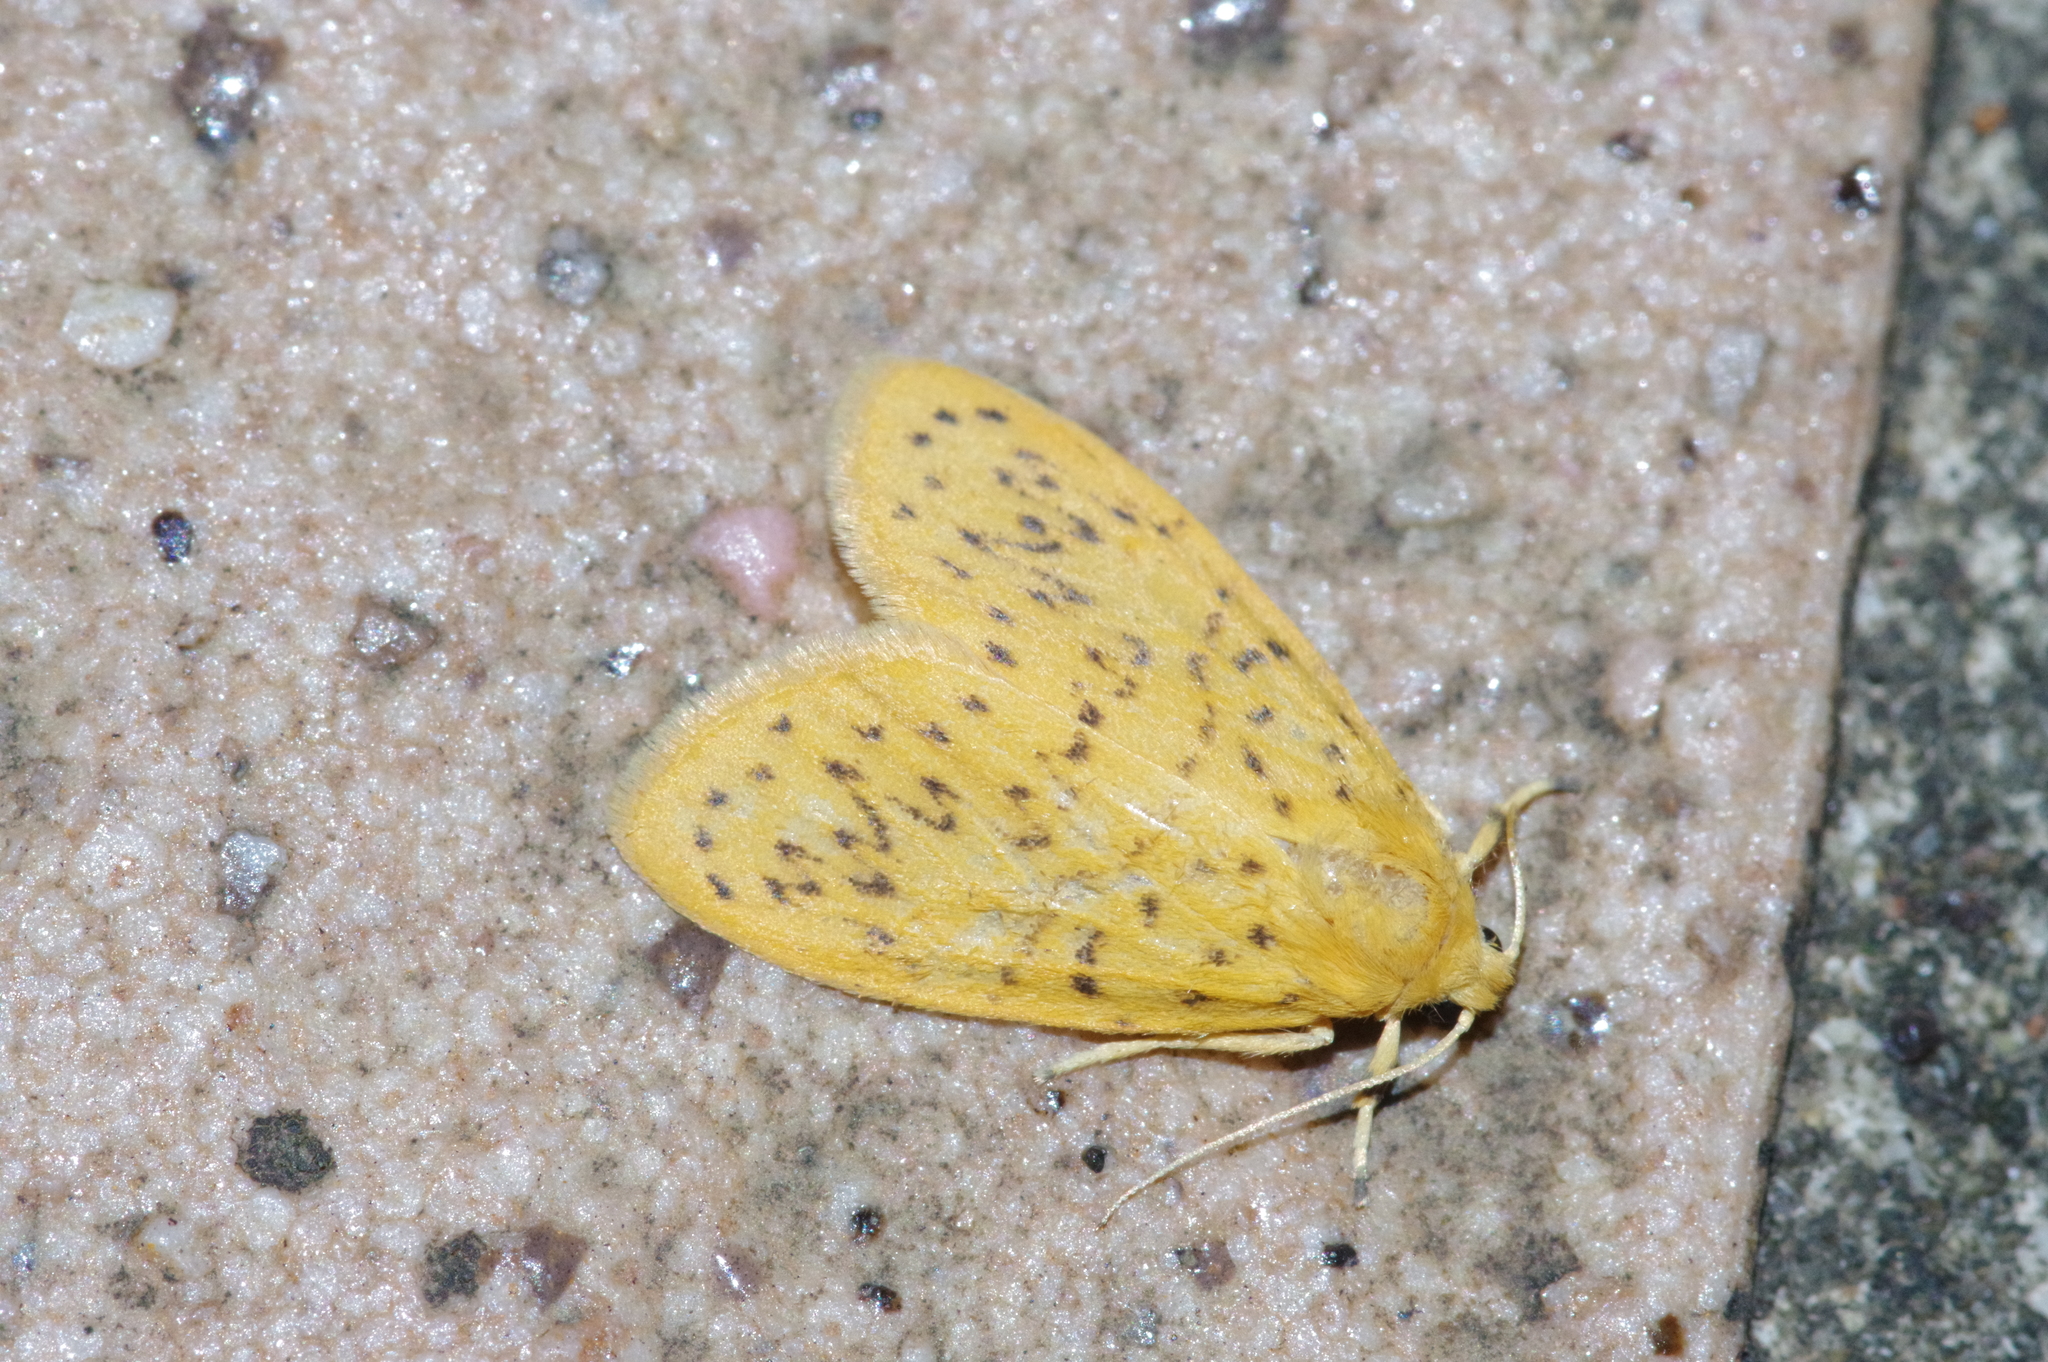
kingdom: Animalia
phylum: Arthropoda
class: Insecta
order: Lepidoptera
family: Erebidae
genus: Huangilene
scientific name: Huangilene alikangiae
